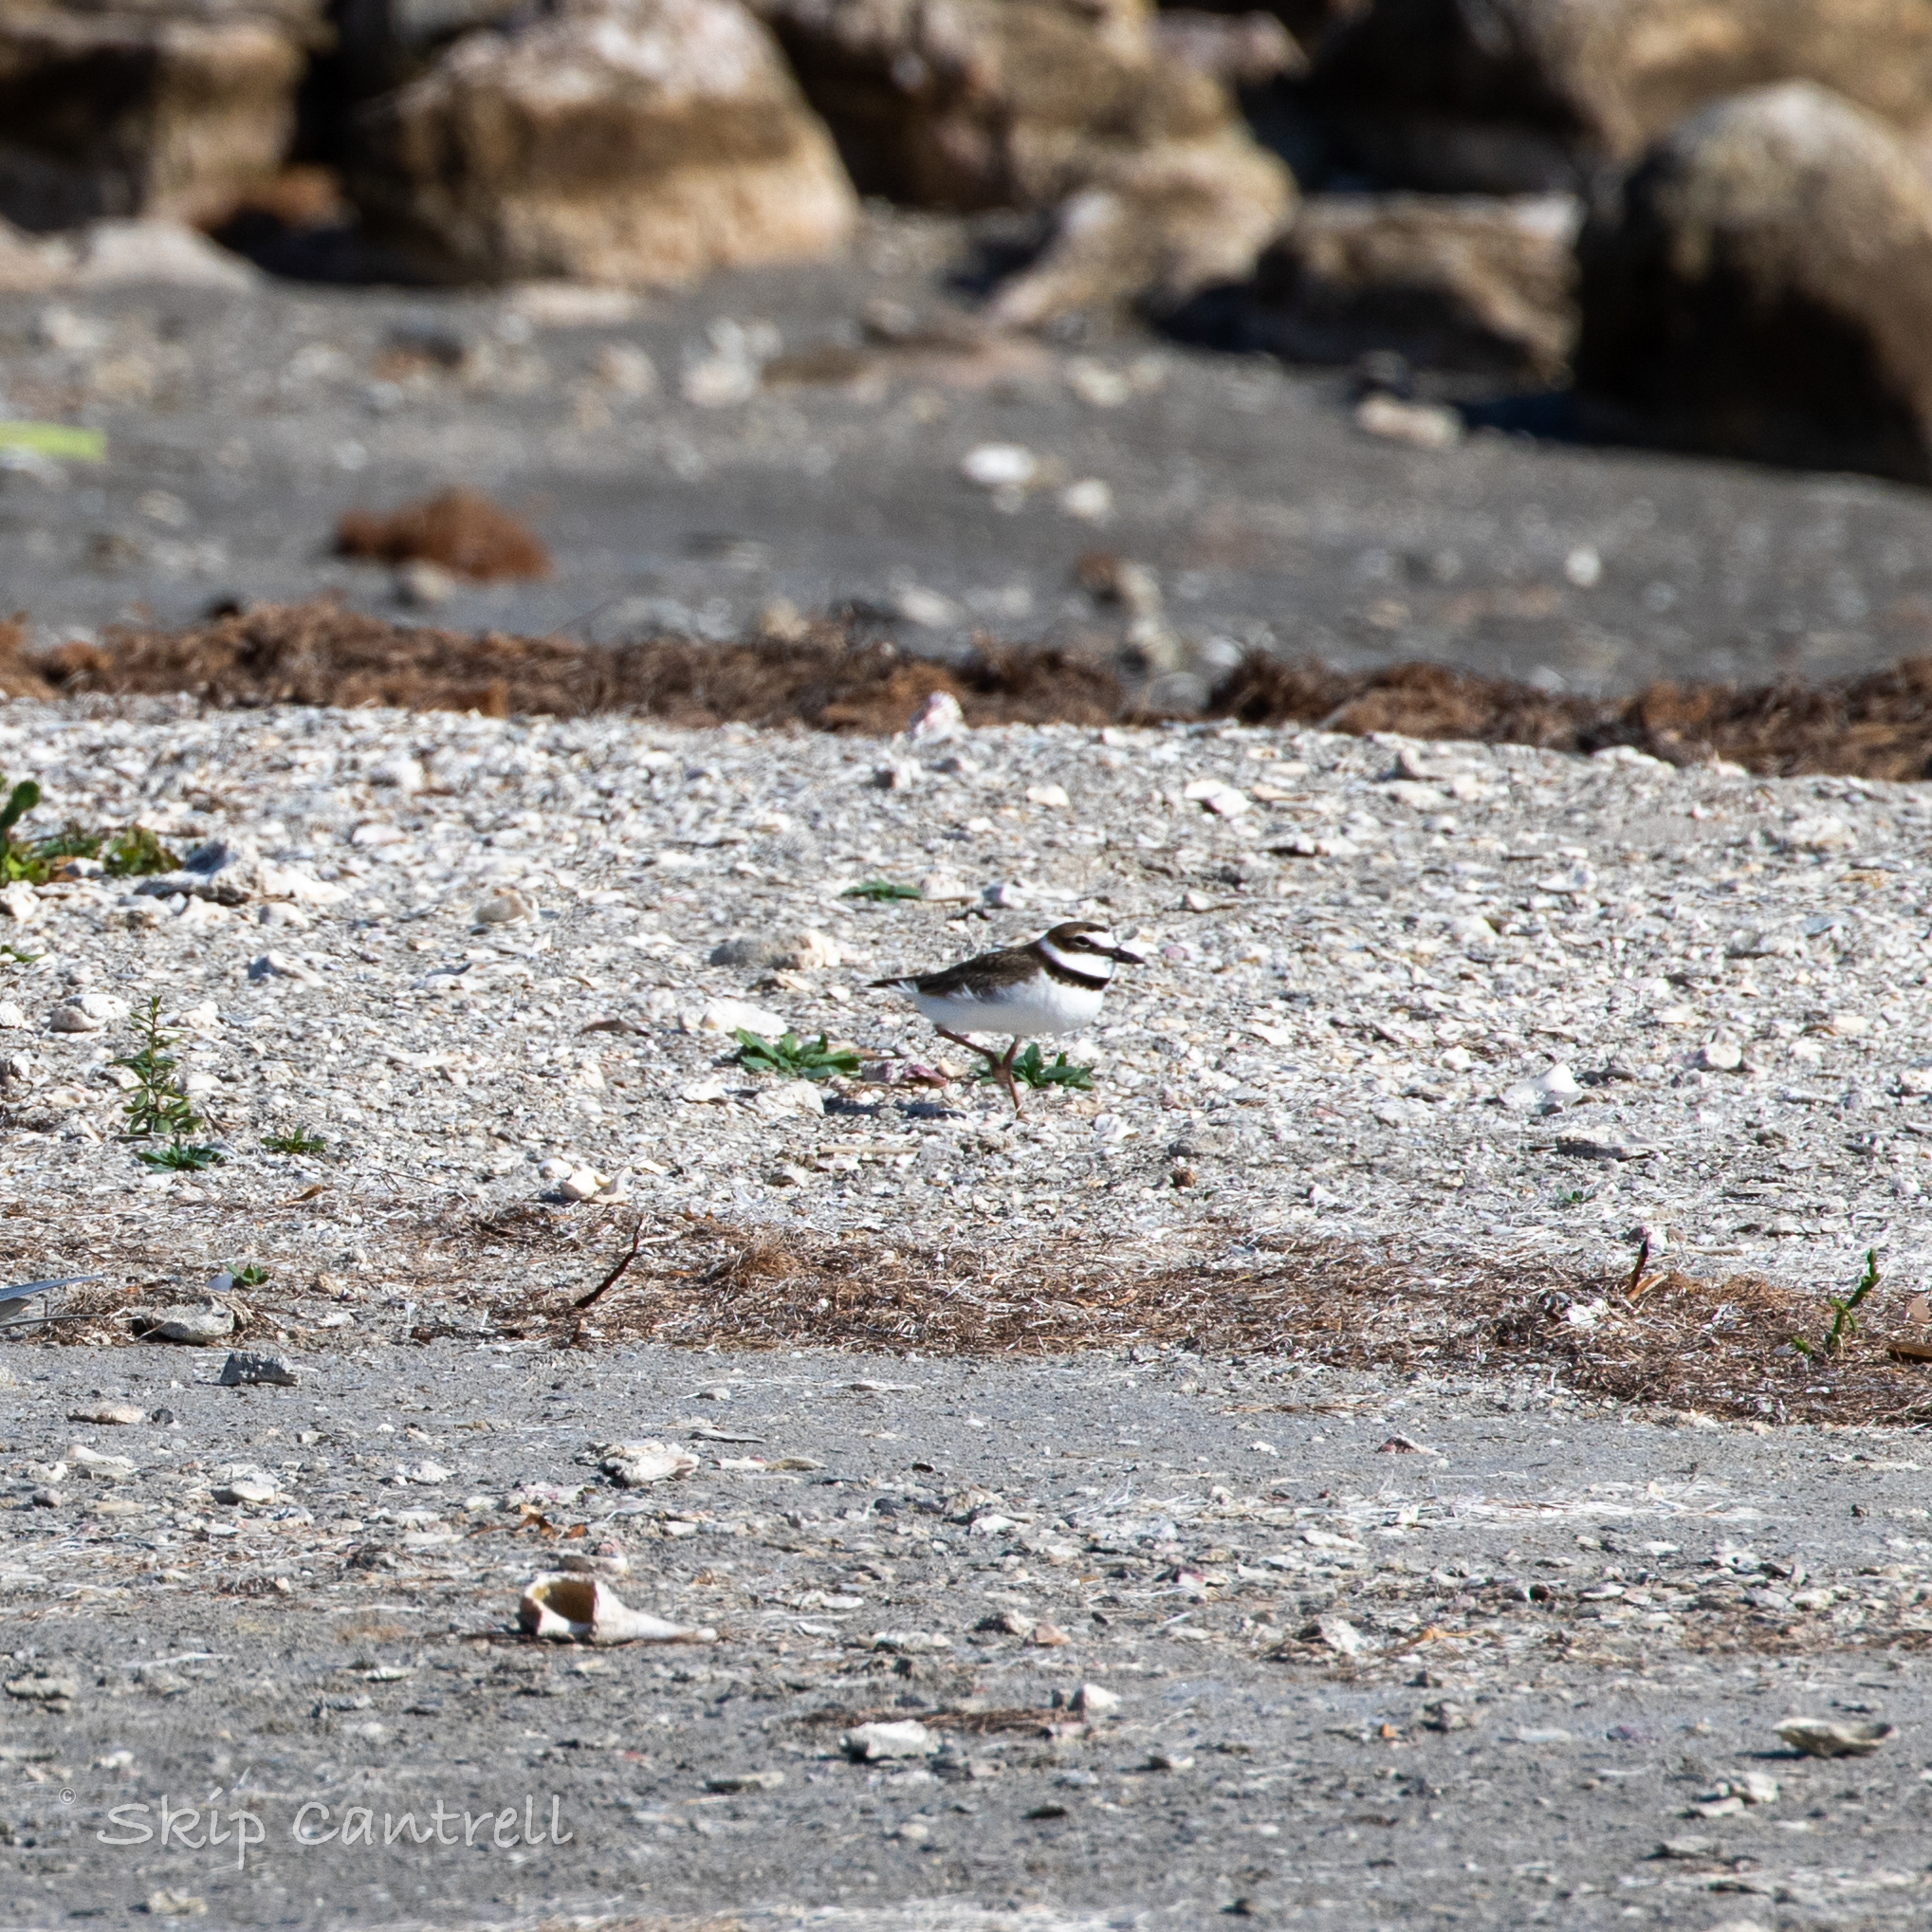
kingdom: Animalia
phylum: Chordata
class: Aves
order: Charadriiformes
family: Charadriidae
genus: Anarhynchus
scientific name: Anarhynchus
